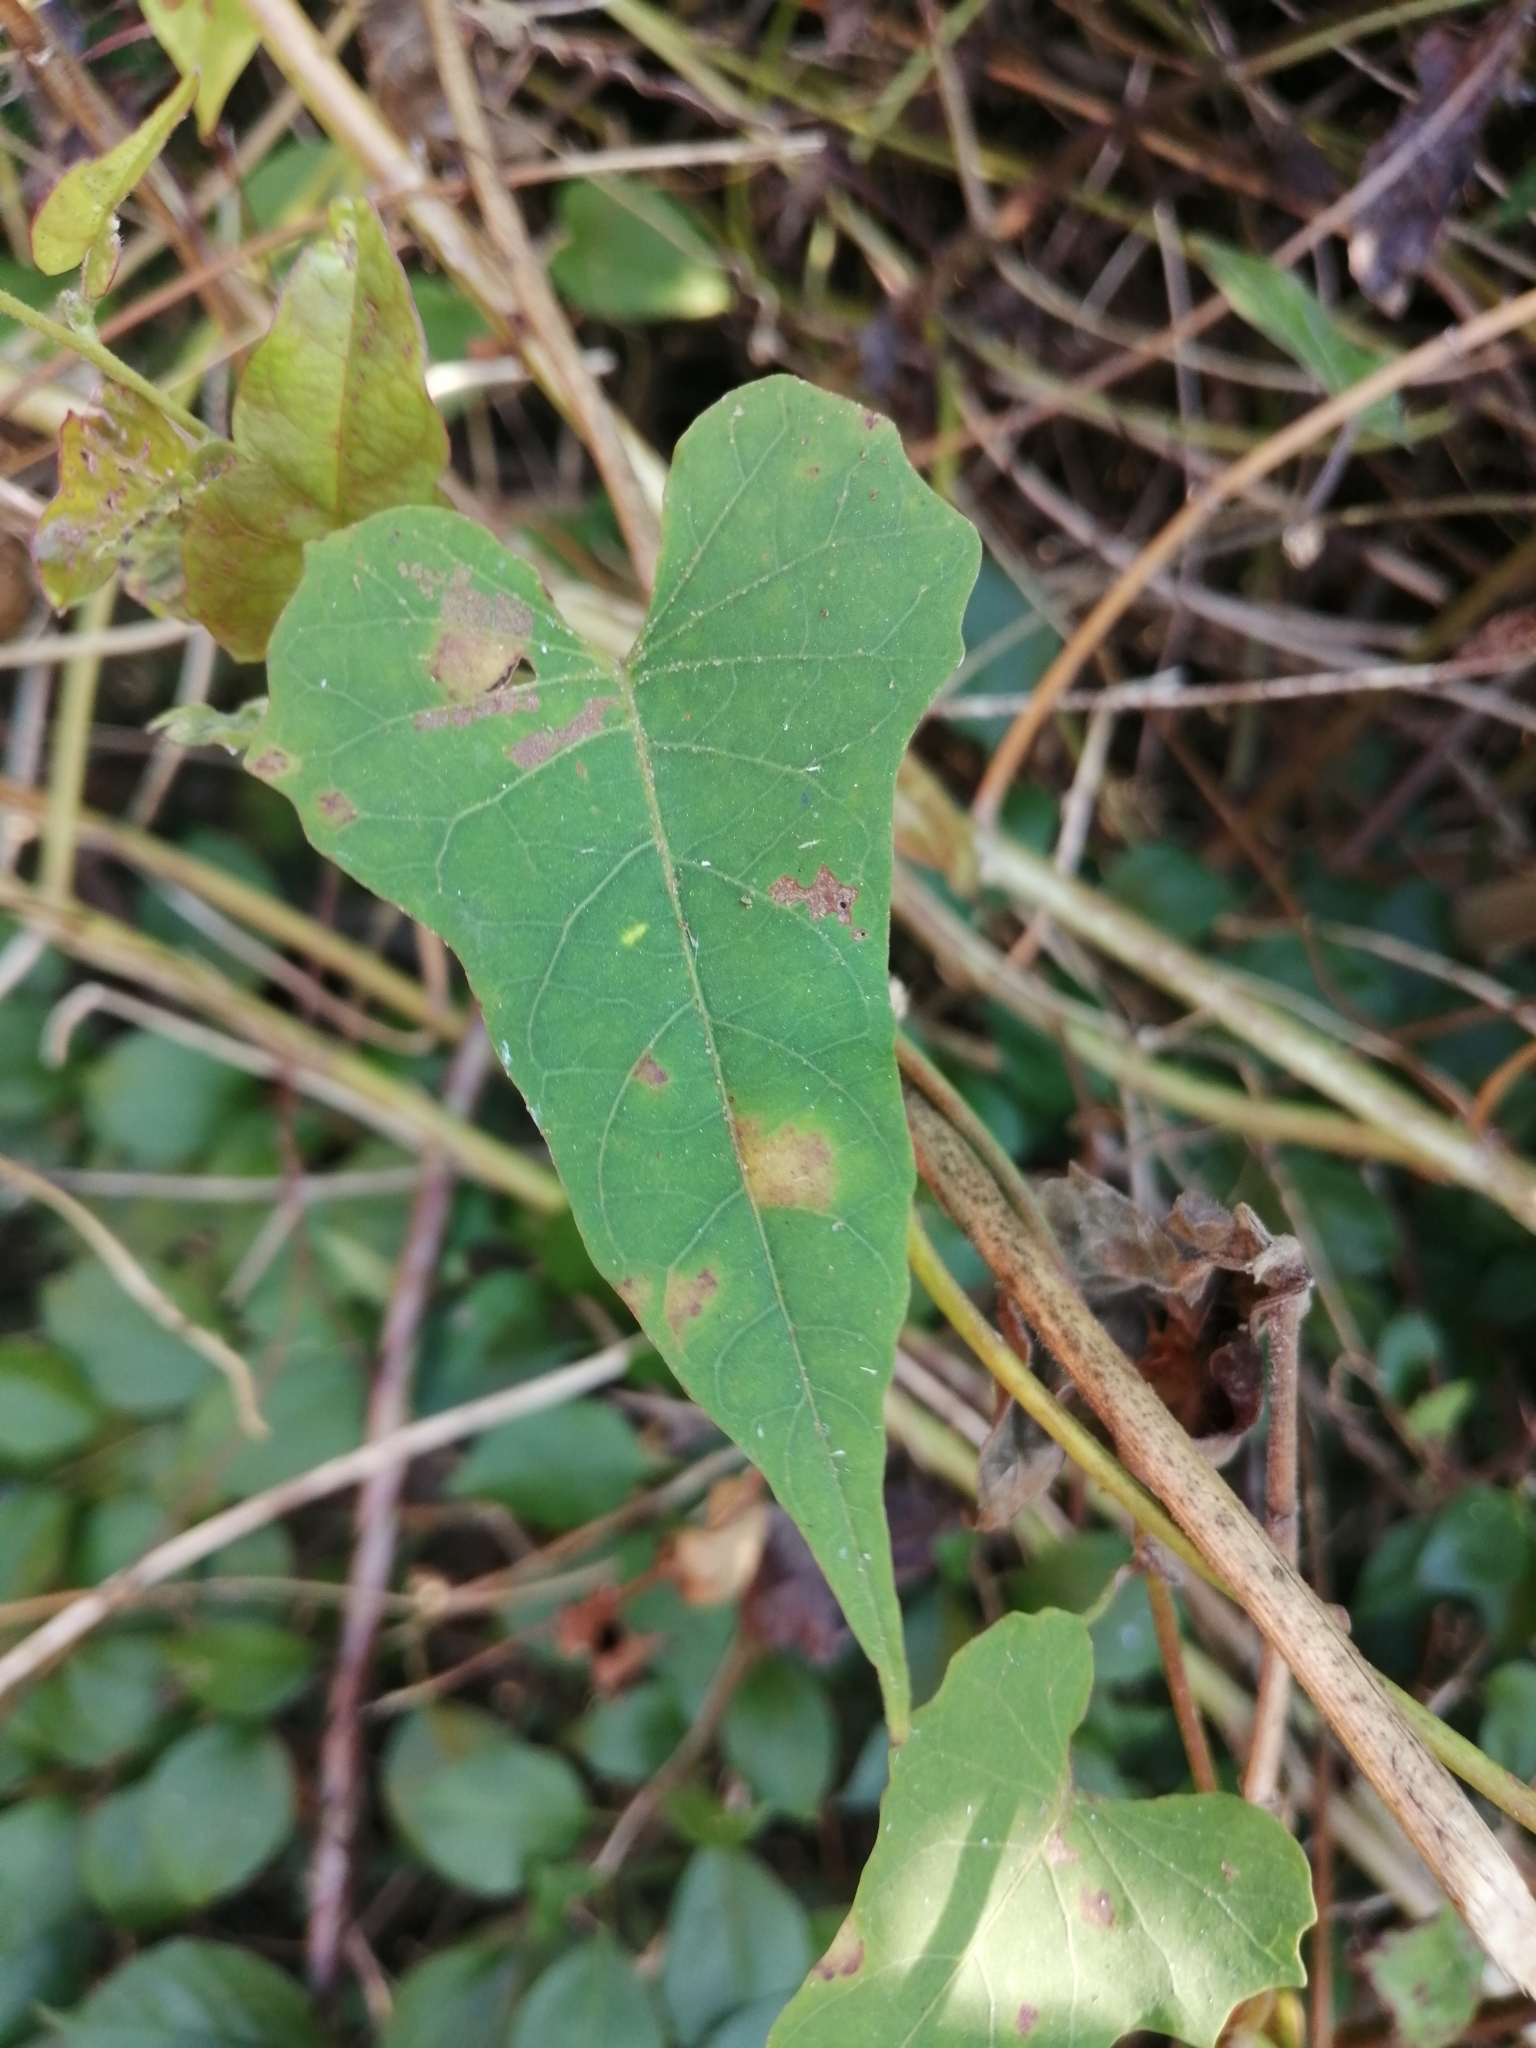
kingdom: Plantae
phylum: Tracheophyta
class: Magnoliopsida
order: Solanales
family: Convolvulaceae
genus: Merremia
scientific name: Merremia gemella
